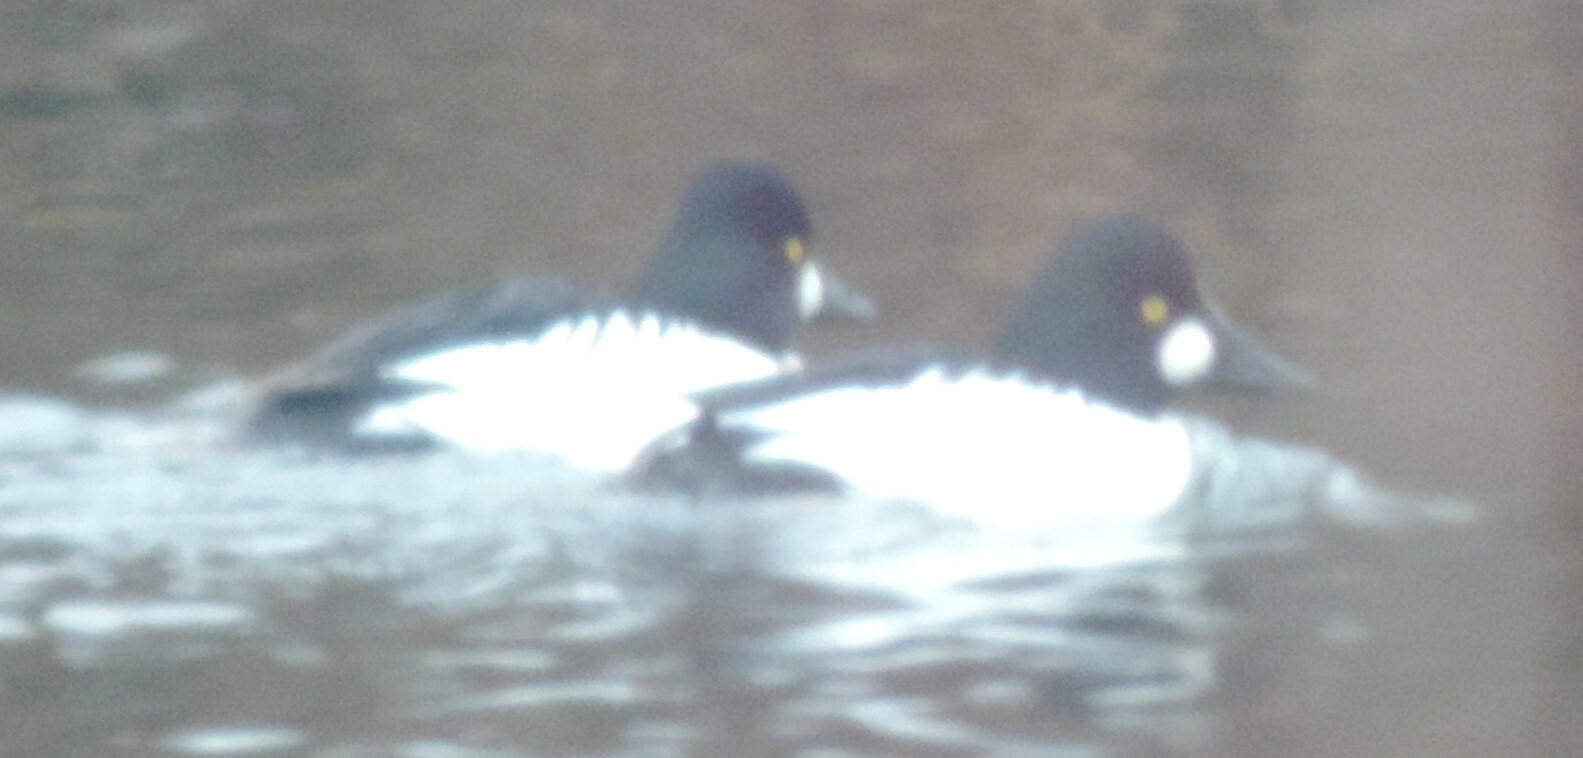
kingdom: Animalia
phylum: Chordata
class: Aves
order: Anseriformes
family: Anatidae
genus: Bucephala
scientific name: Bucephala clangula
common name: Common goldeneye
